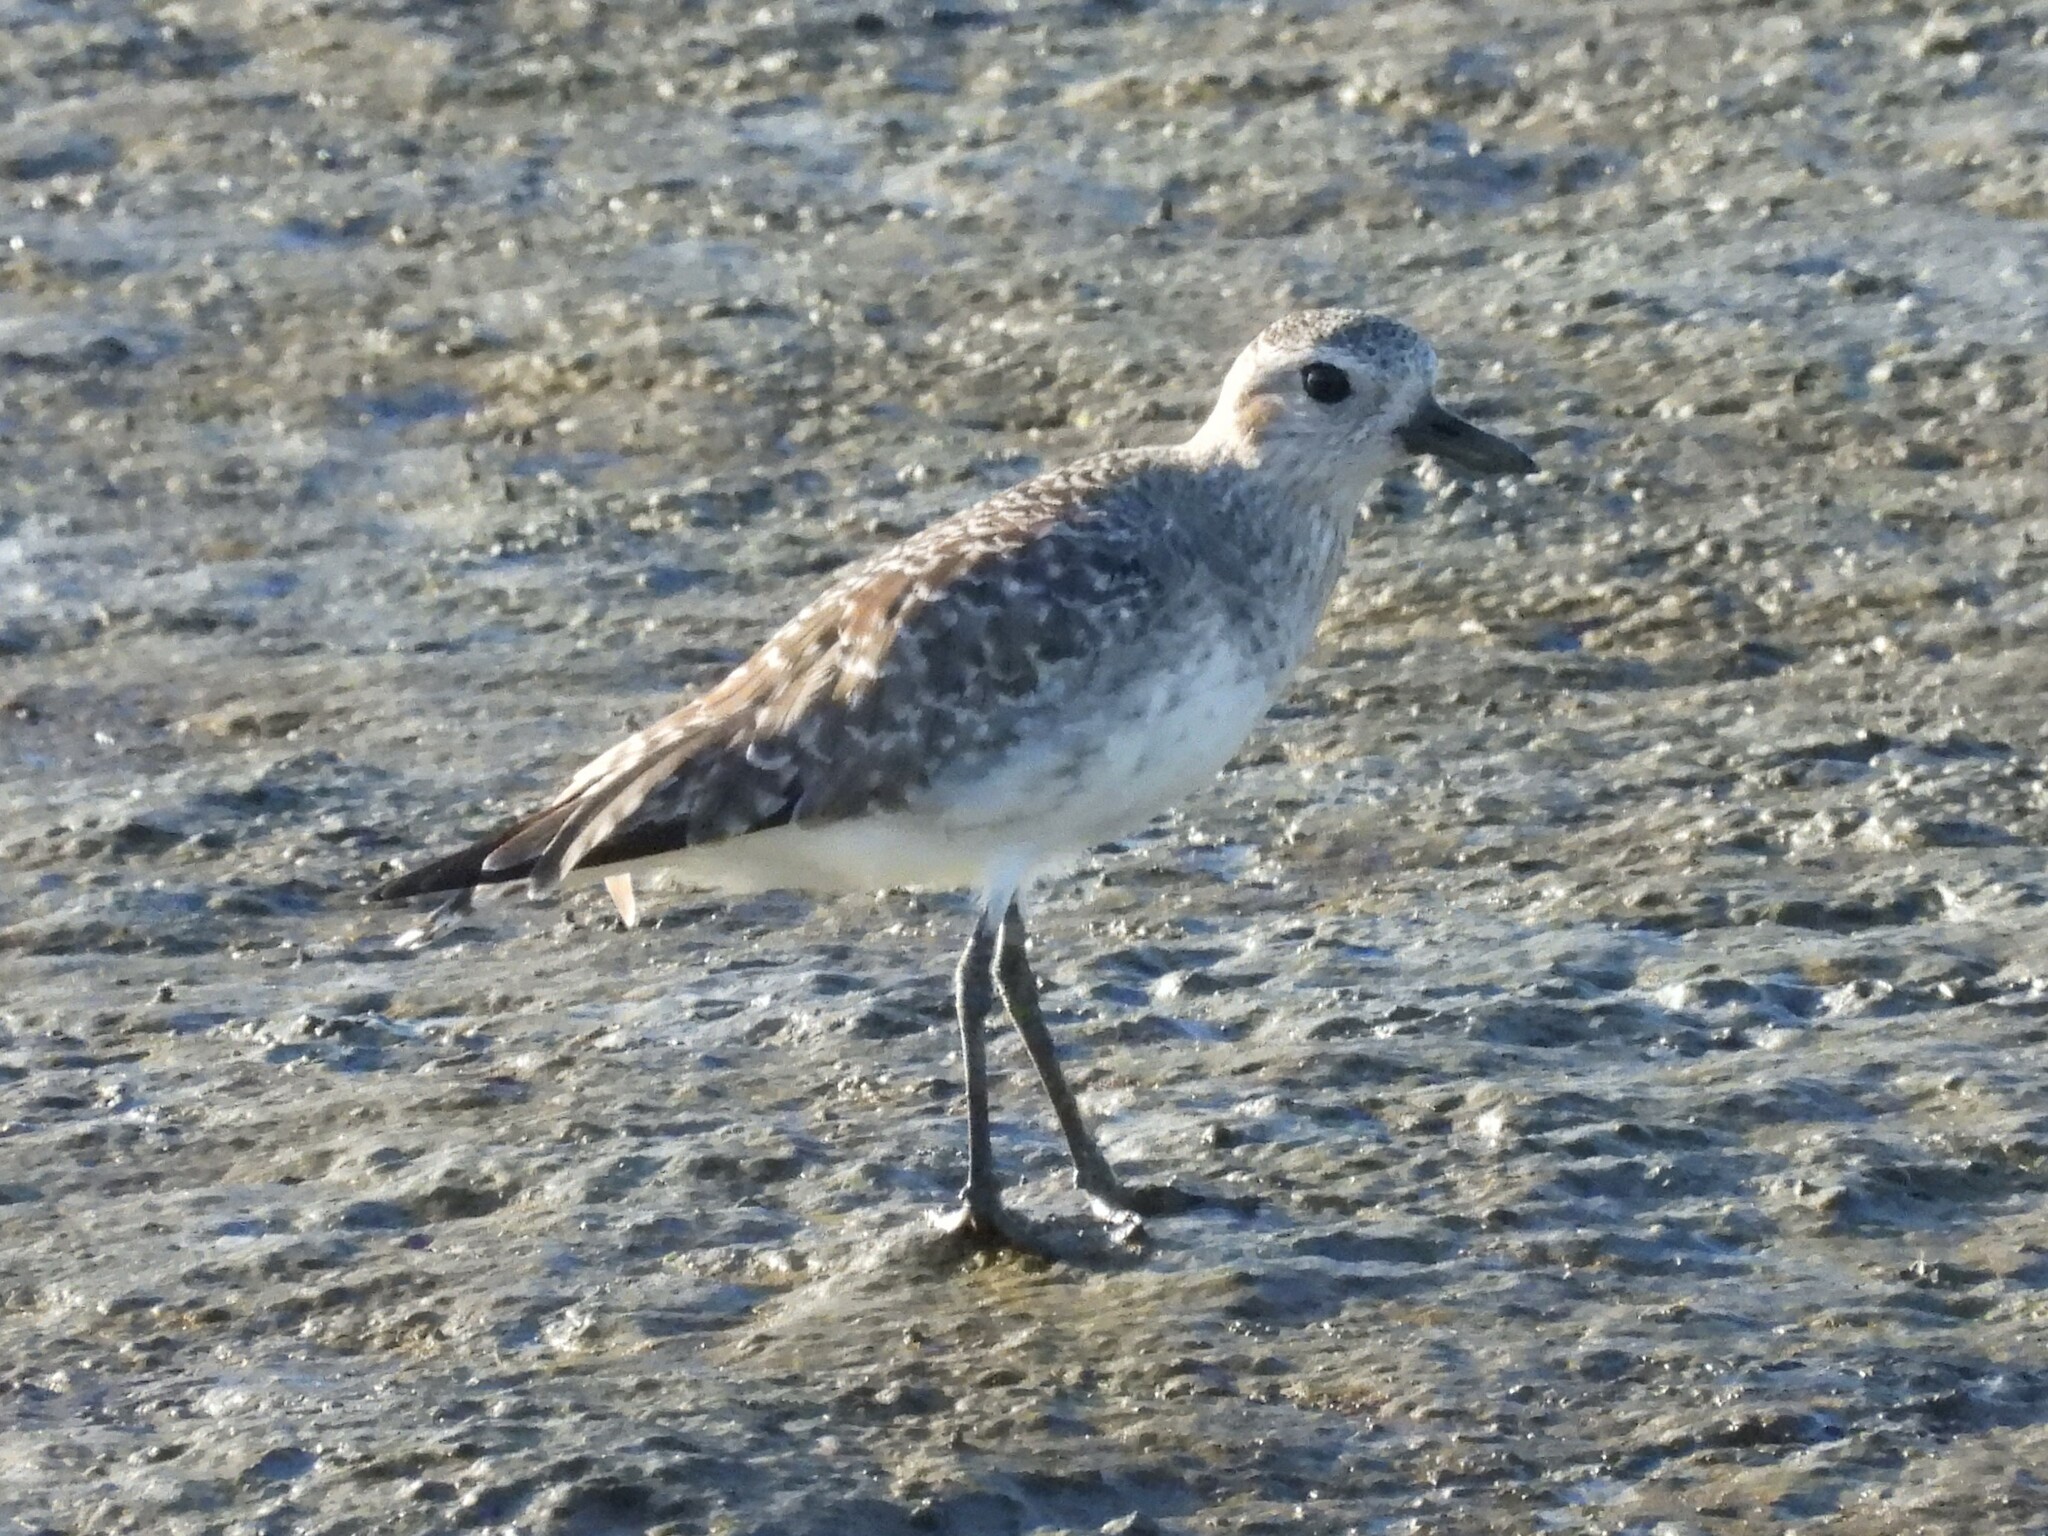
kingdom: Animalia
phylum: Chordata
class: Aves
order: Charadriiformes
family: Charadriidae
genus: Pluvialis
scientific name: Pluvialis squatarola
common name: Grey plover
